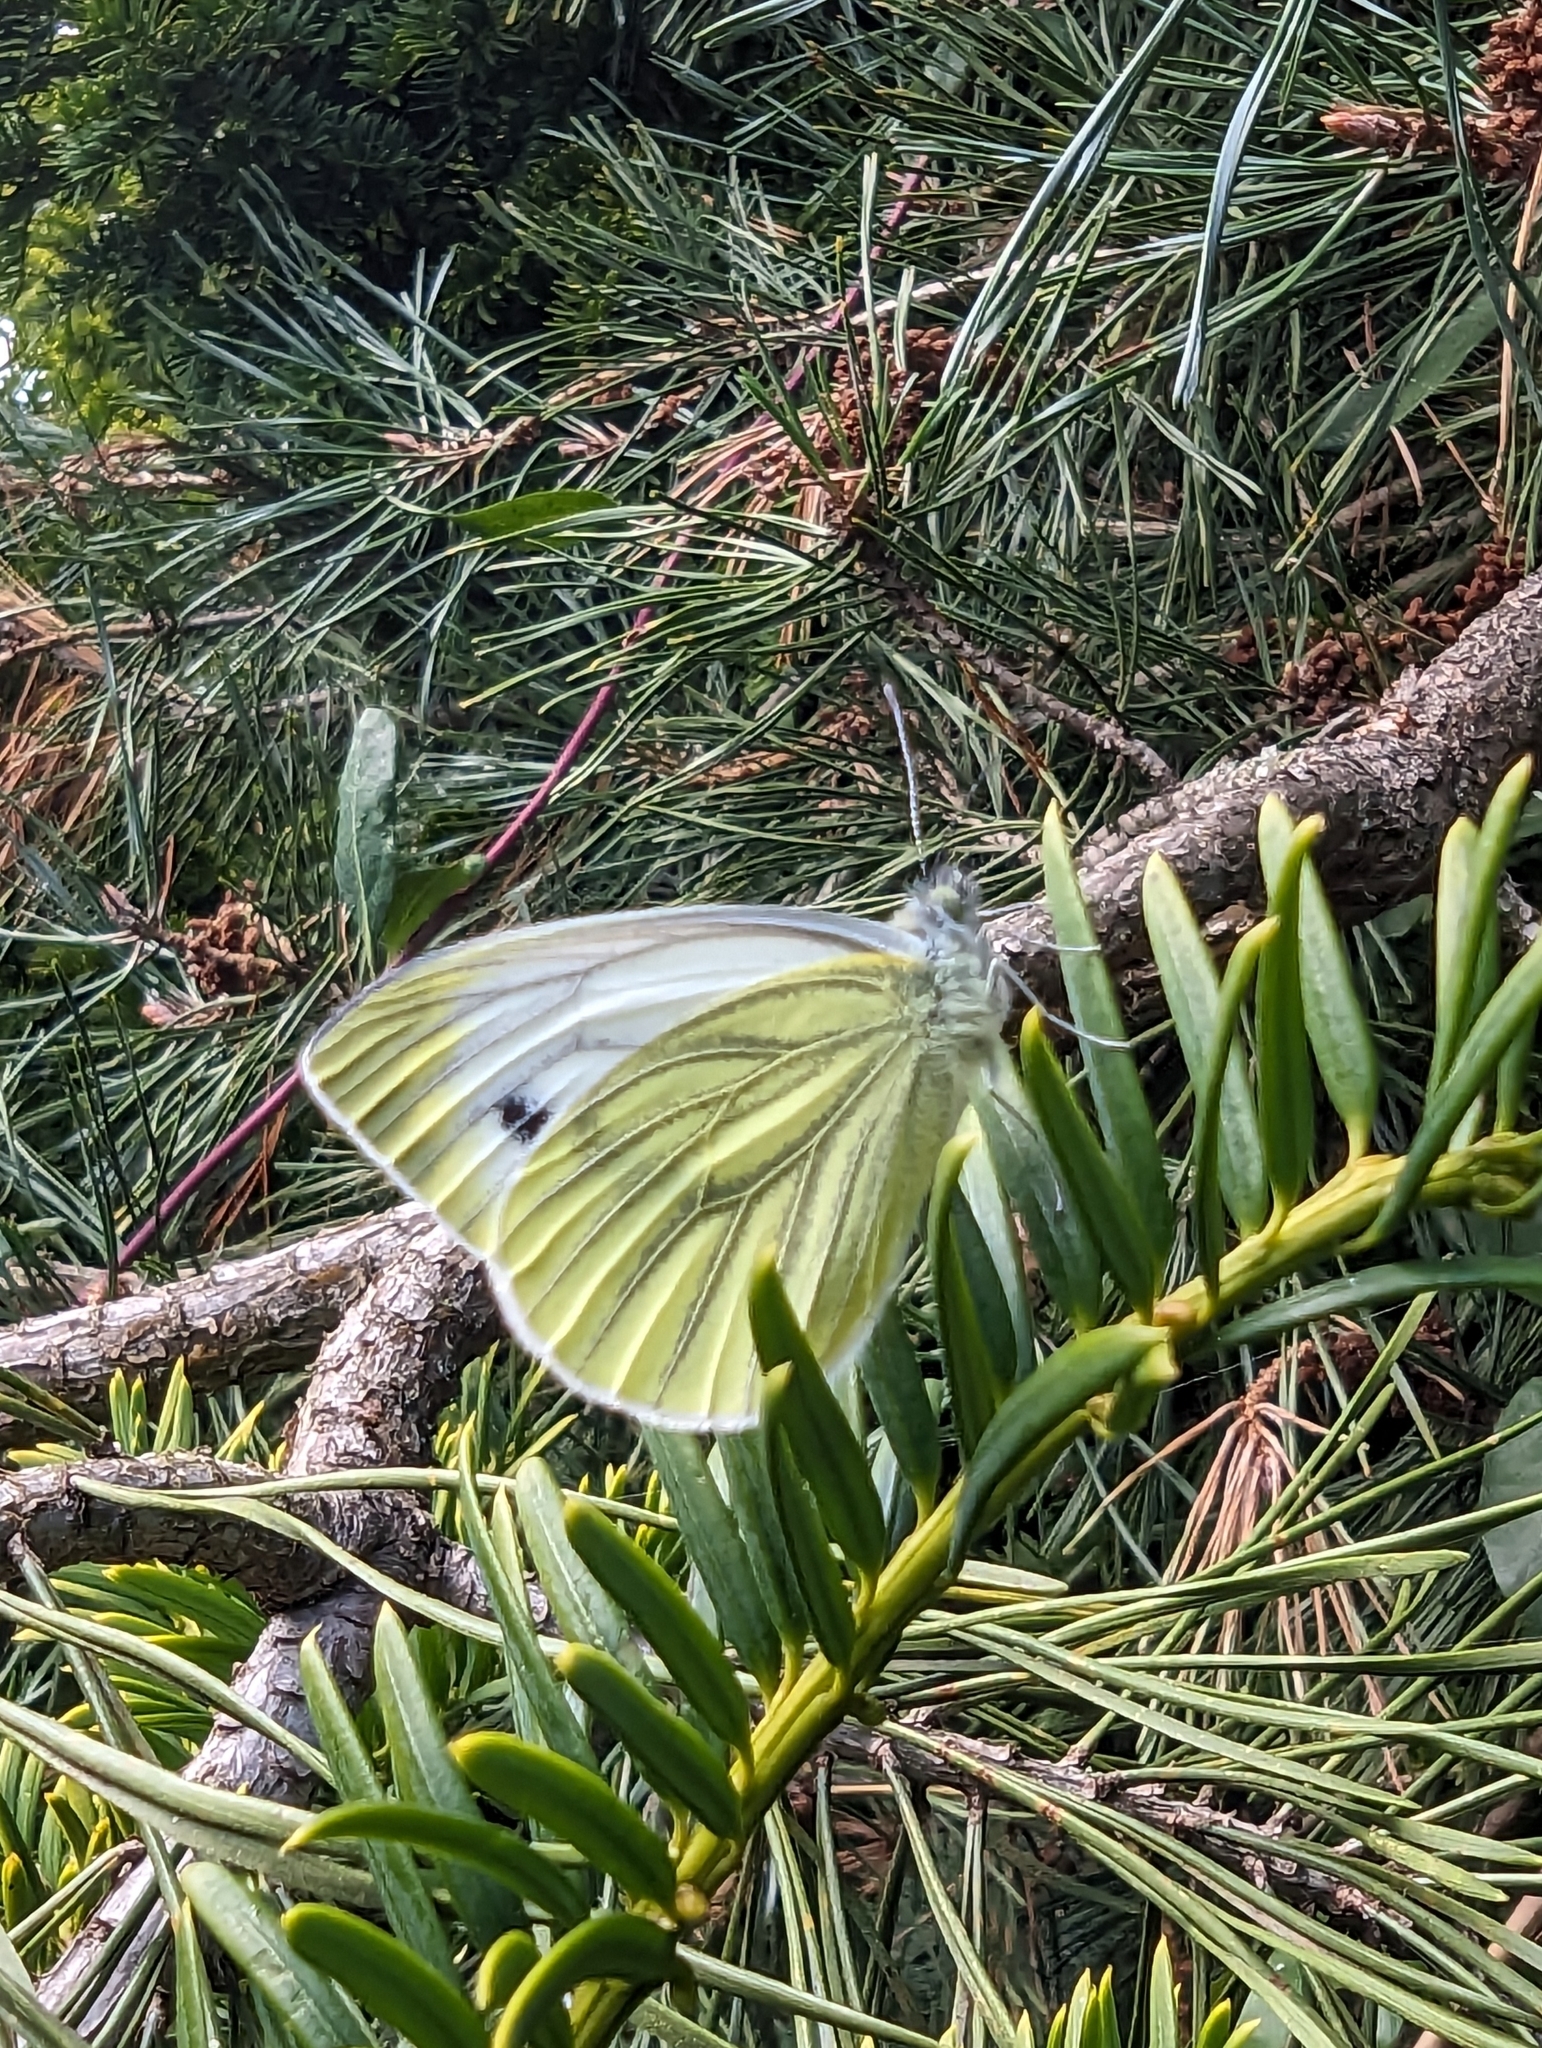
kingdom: Animalia
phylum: Arthropoda
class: Insecta
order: Lepidoptera
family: Pieridae
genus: Pieris
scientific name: Pieris napi
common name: Green-veined white
